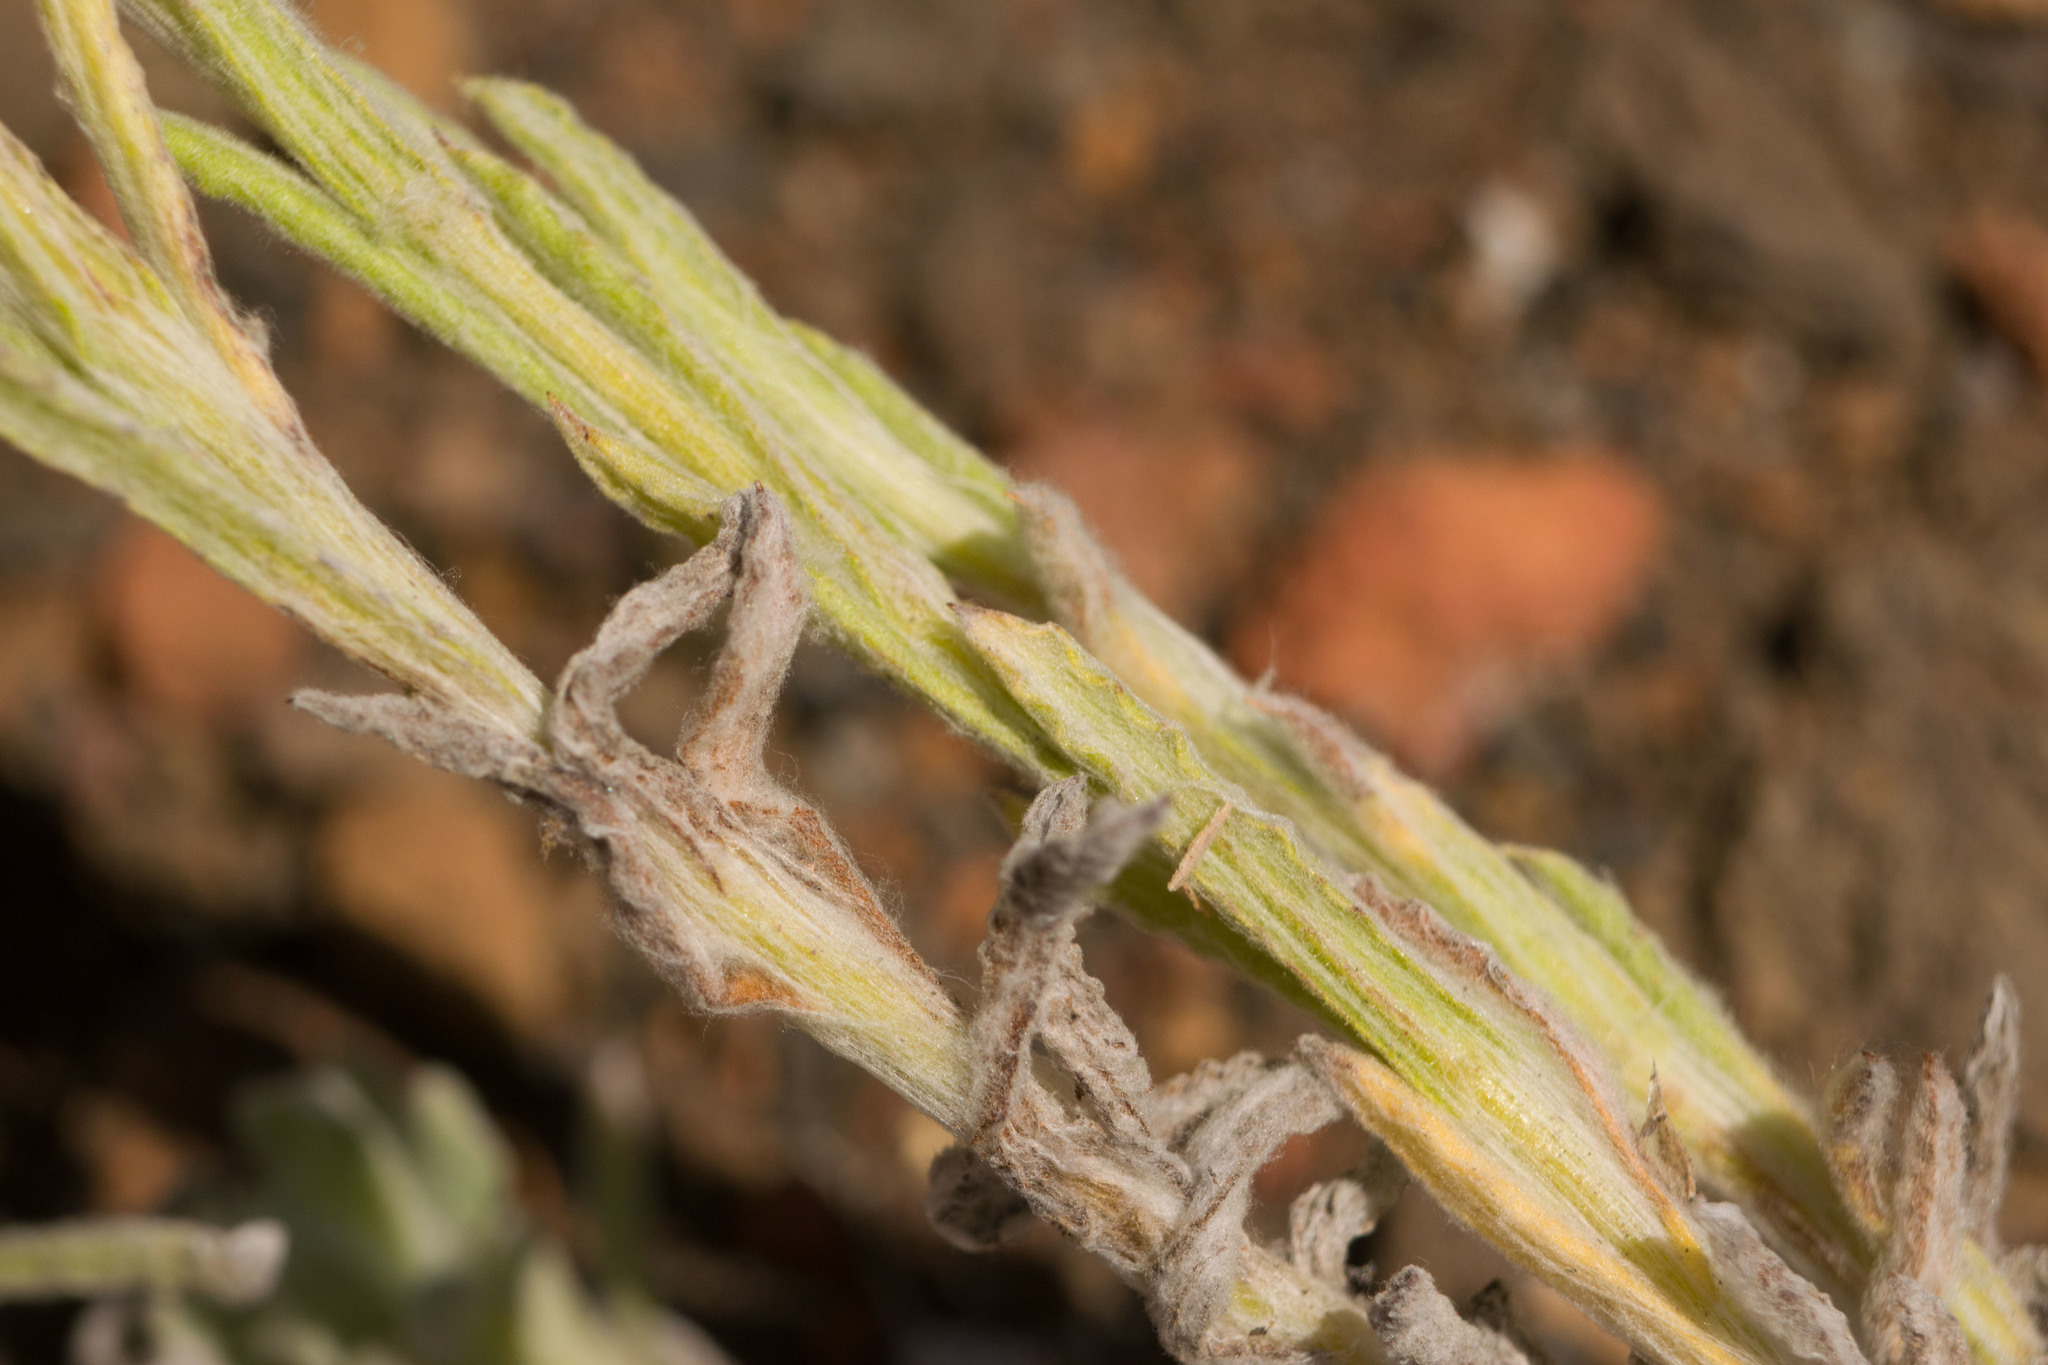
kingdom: Plantae
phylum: Tracheophyta
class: Magnoliopsida
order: Asterales
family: Asteraceae
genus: Pseudognaphalium
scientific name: Pseudognaphalium sandwicensium
